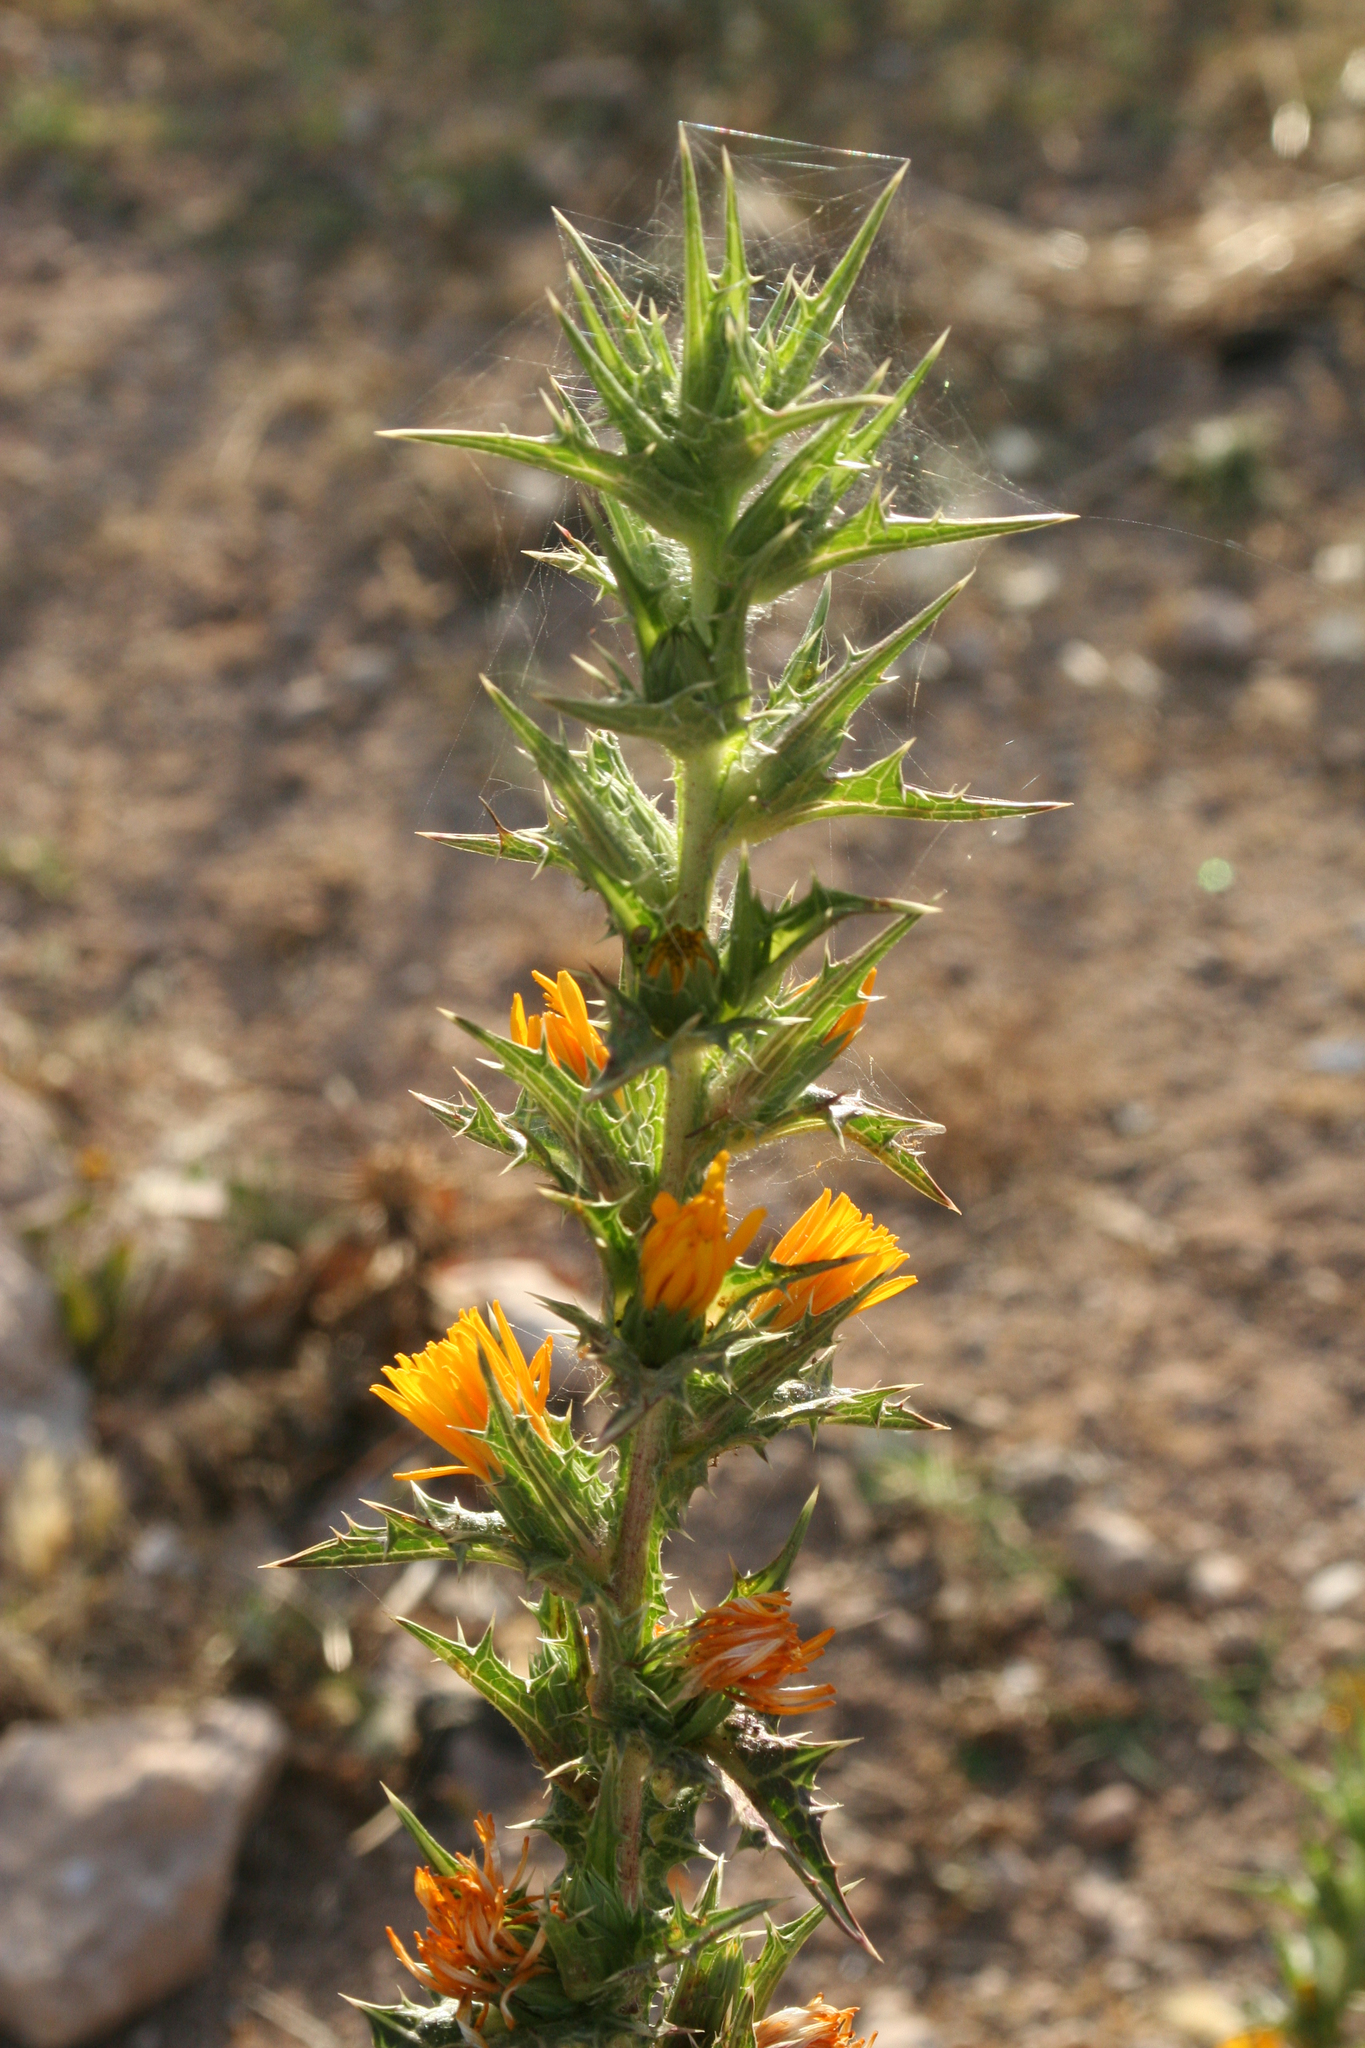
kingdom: Plantae
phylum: Tracheophyta
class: Magnoliopsida
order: Asterales
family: Asteraceae
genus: Scolymus
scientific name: Scolymus hispanicus
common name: Golden thistle
